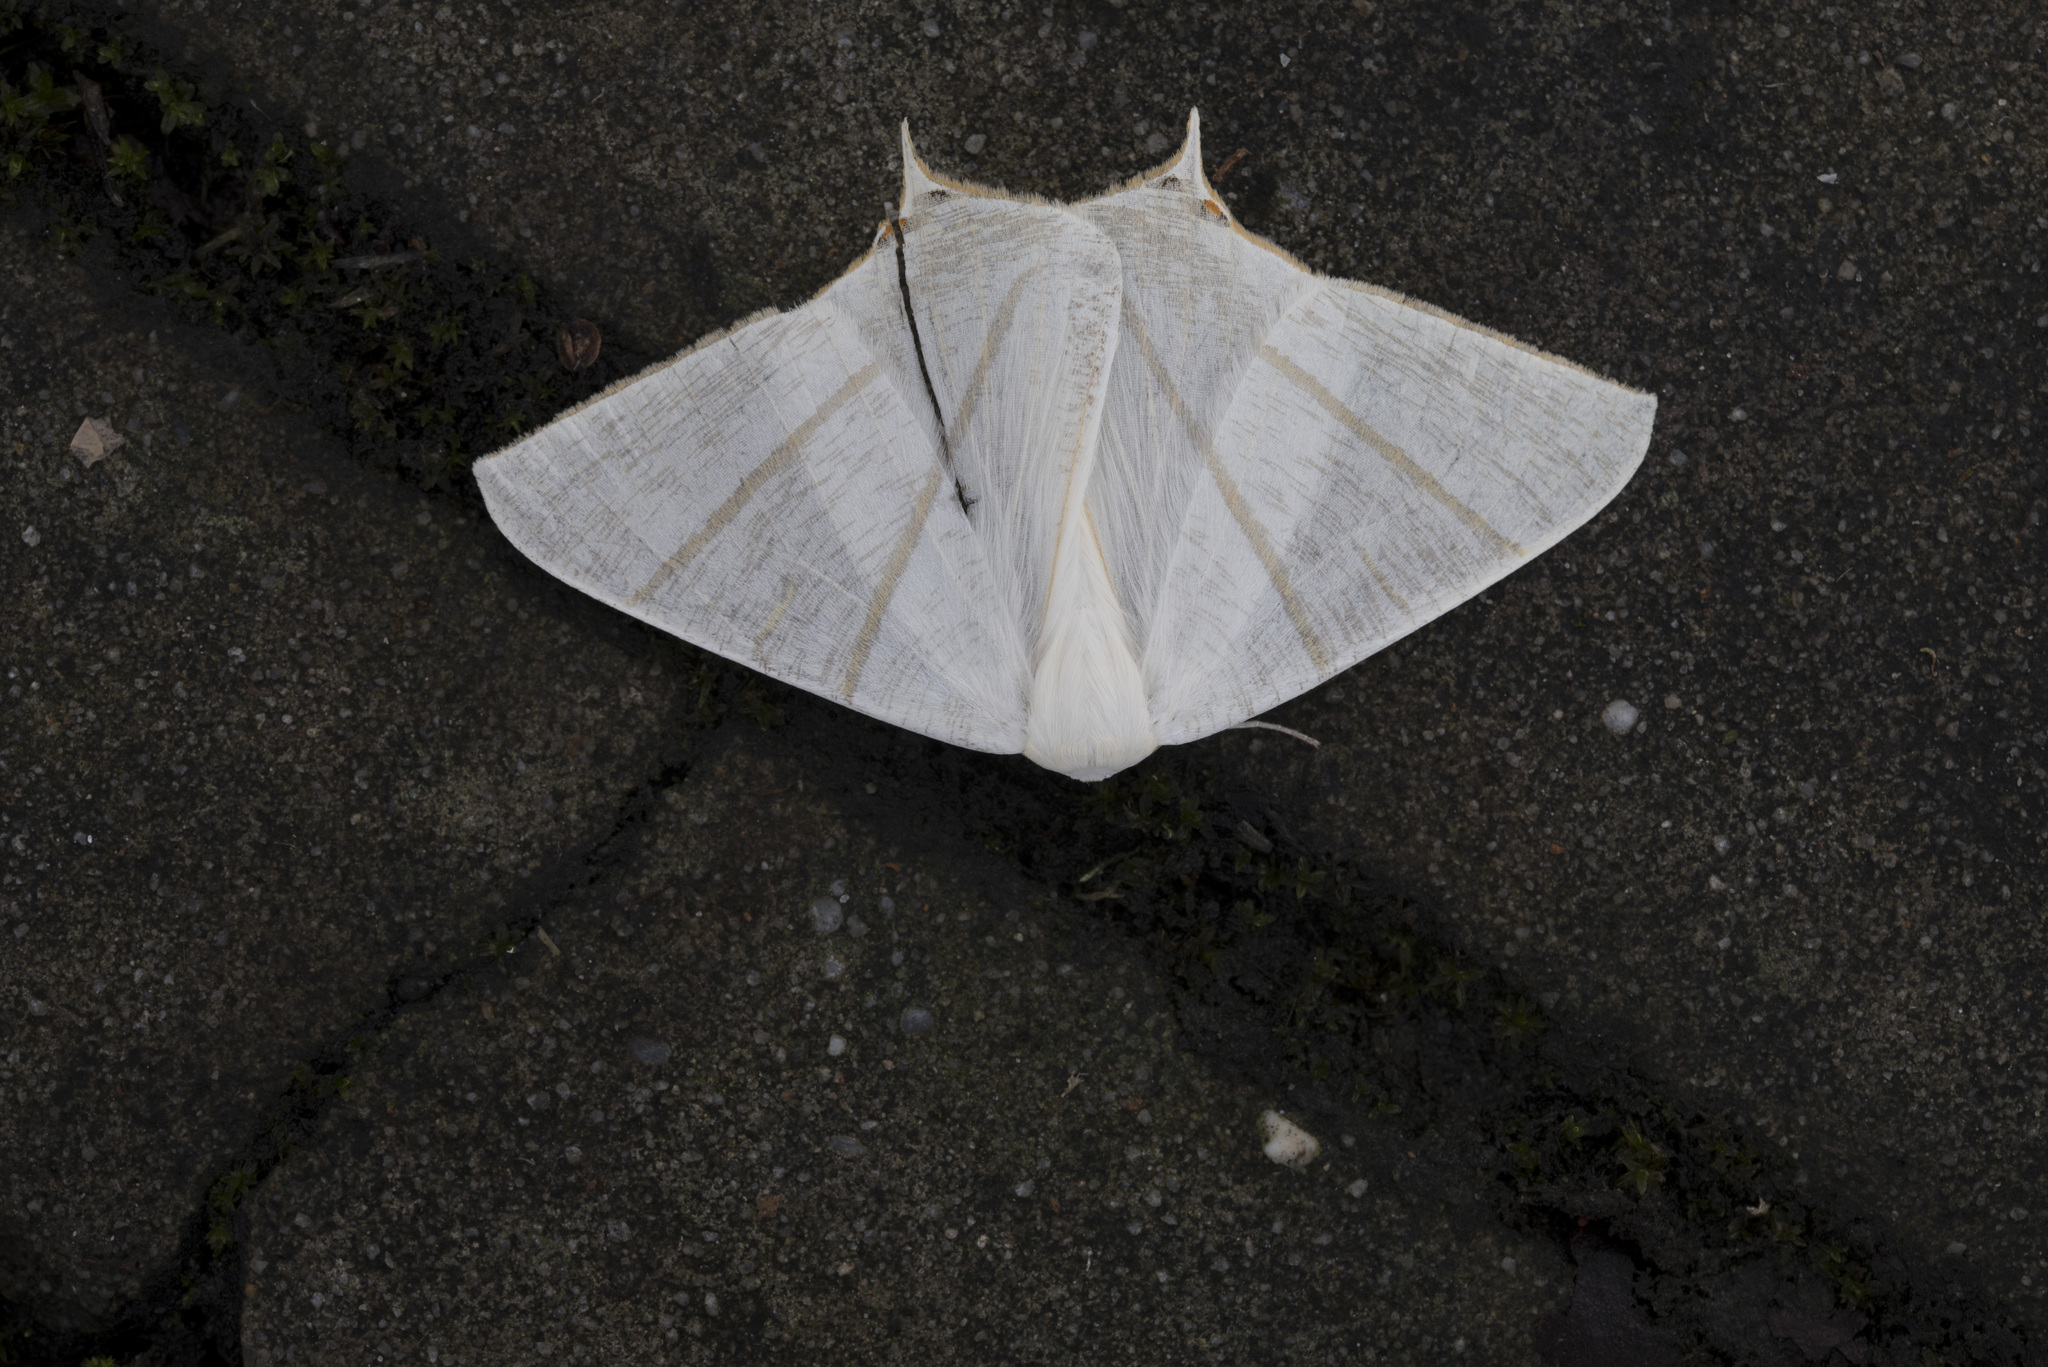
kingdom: Animalia
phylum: Arthropoda
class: Insecta
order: Lepidoptera
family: Geometridae
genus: Ourapteryx
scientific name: Ourapteryx pallidula
